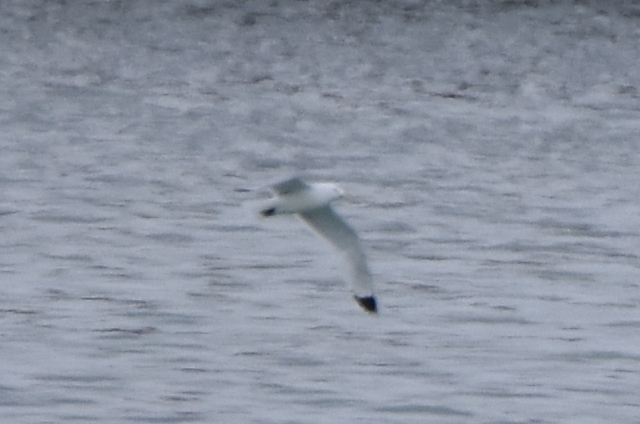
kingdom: Animalia
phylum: Chordata
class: Aves
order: Charadriiformes
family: Laridae
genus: Rissa
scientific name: Rissa tridactyla
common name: Black-legged kittiwake
